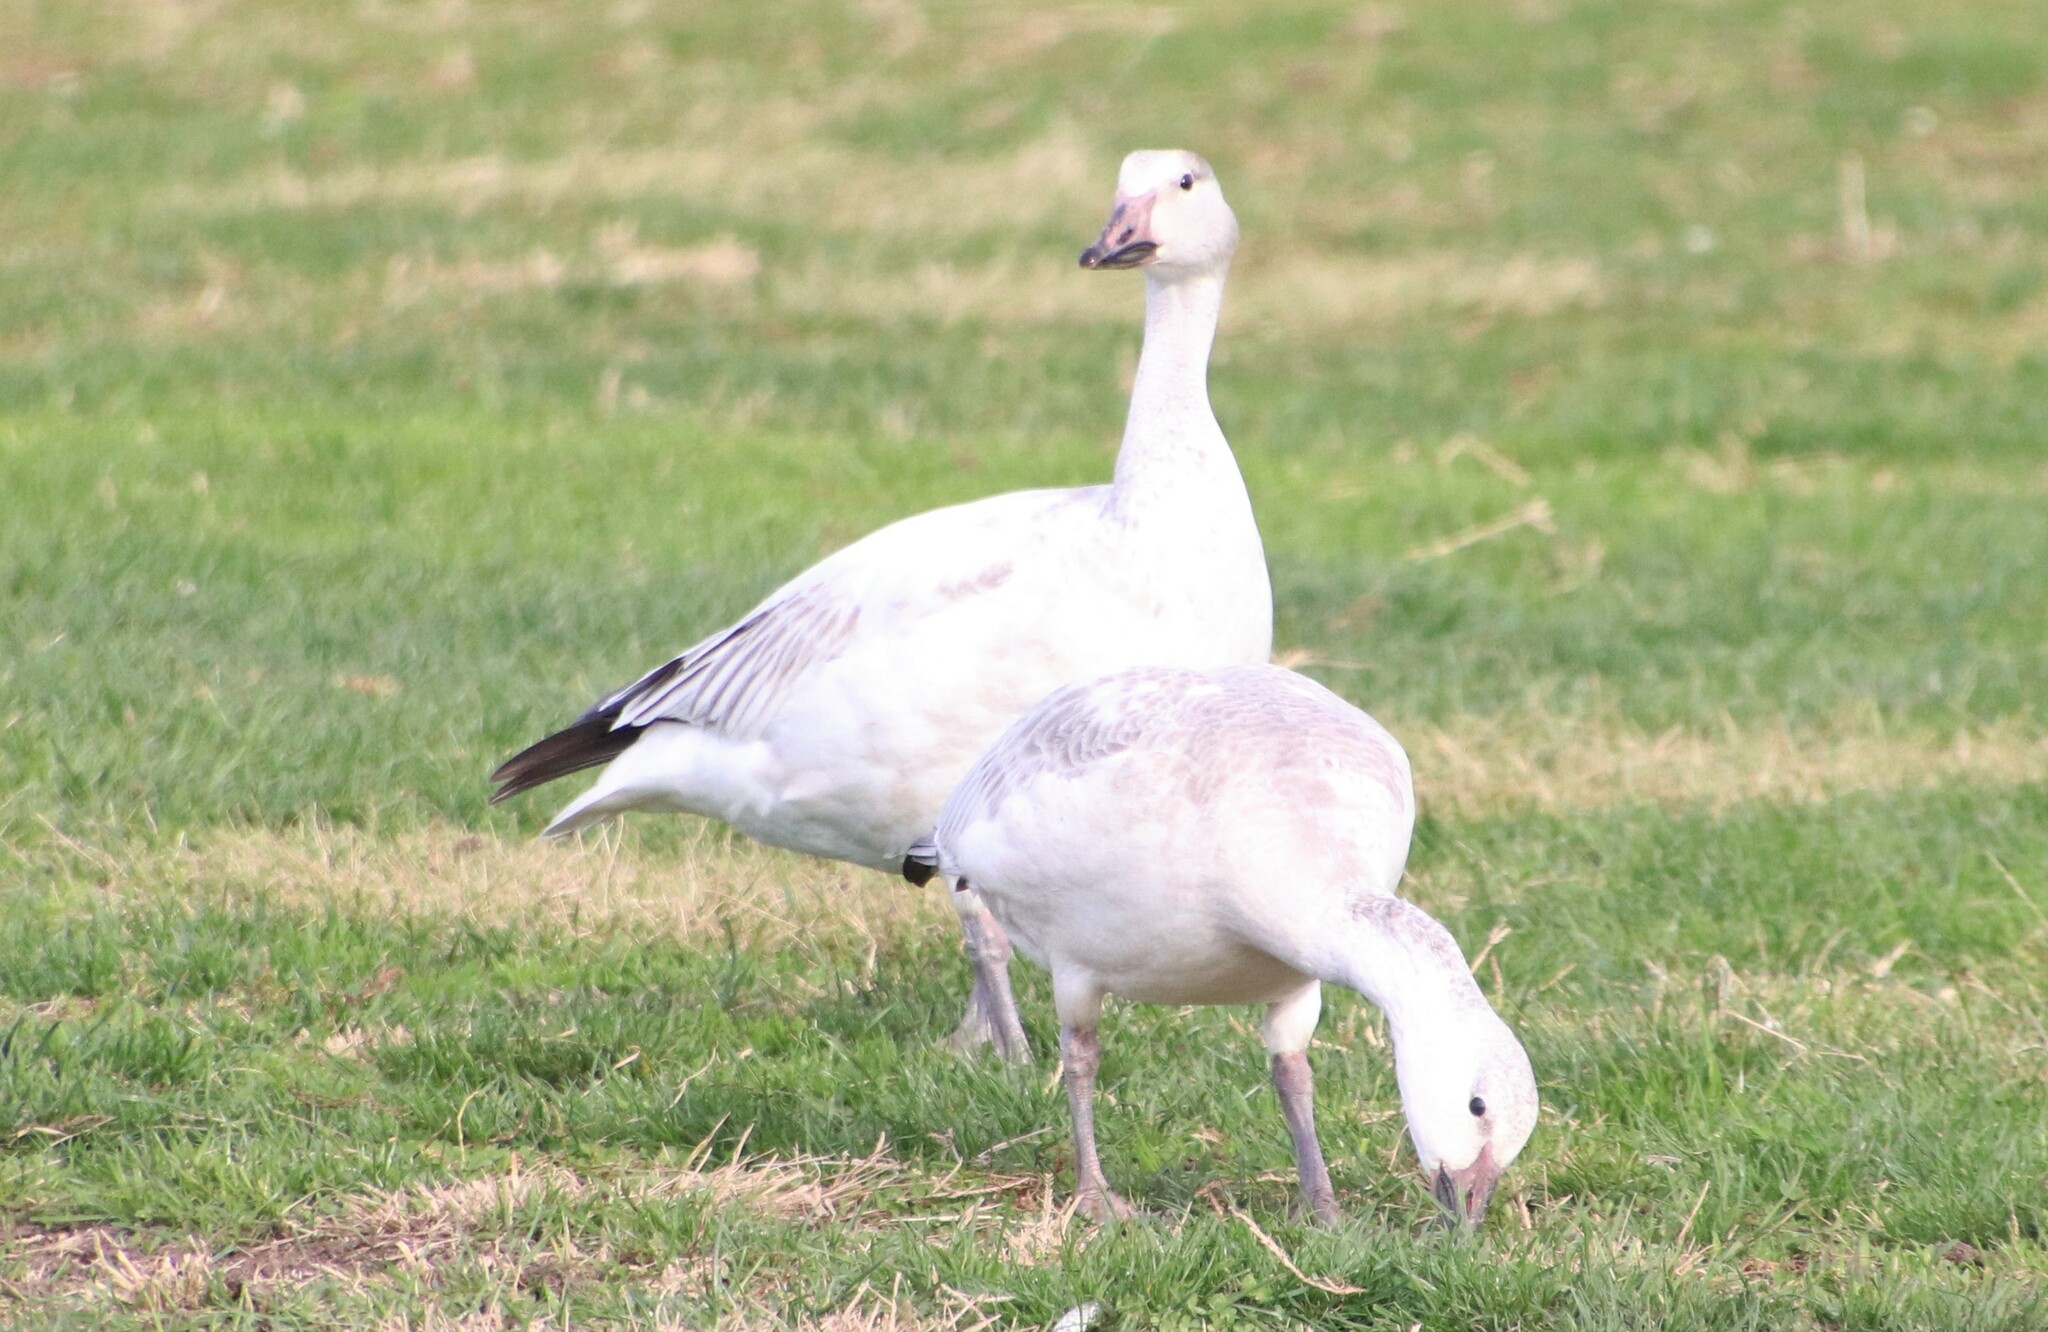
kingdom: Animalia
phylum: Chordata
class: Aves
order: Anseriformes
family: Anatidae
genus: Anser
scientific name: Anser caerulescens
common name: Snow goose
